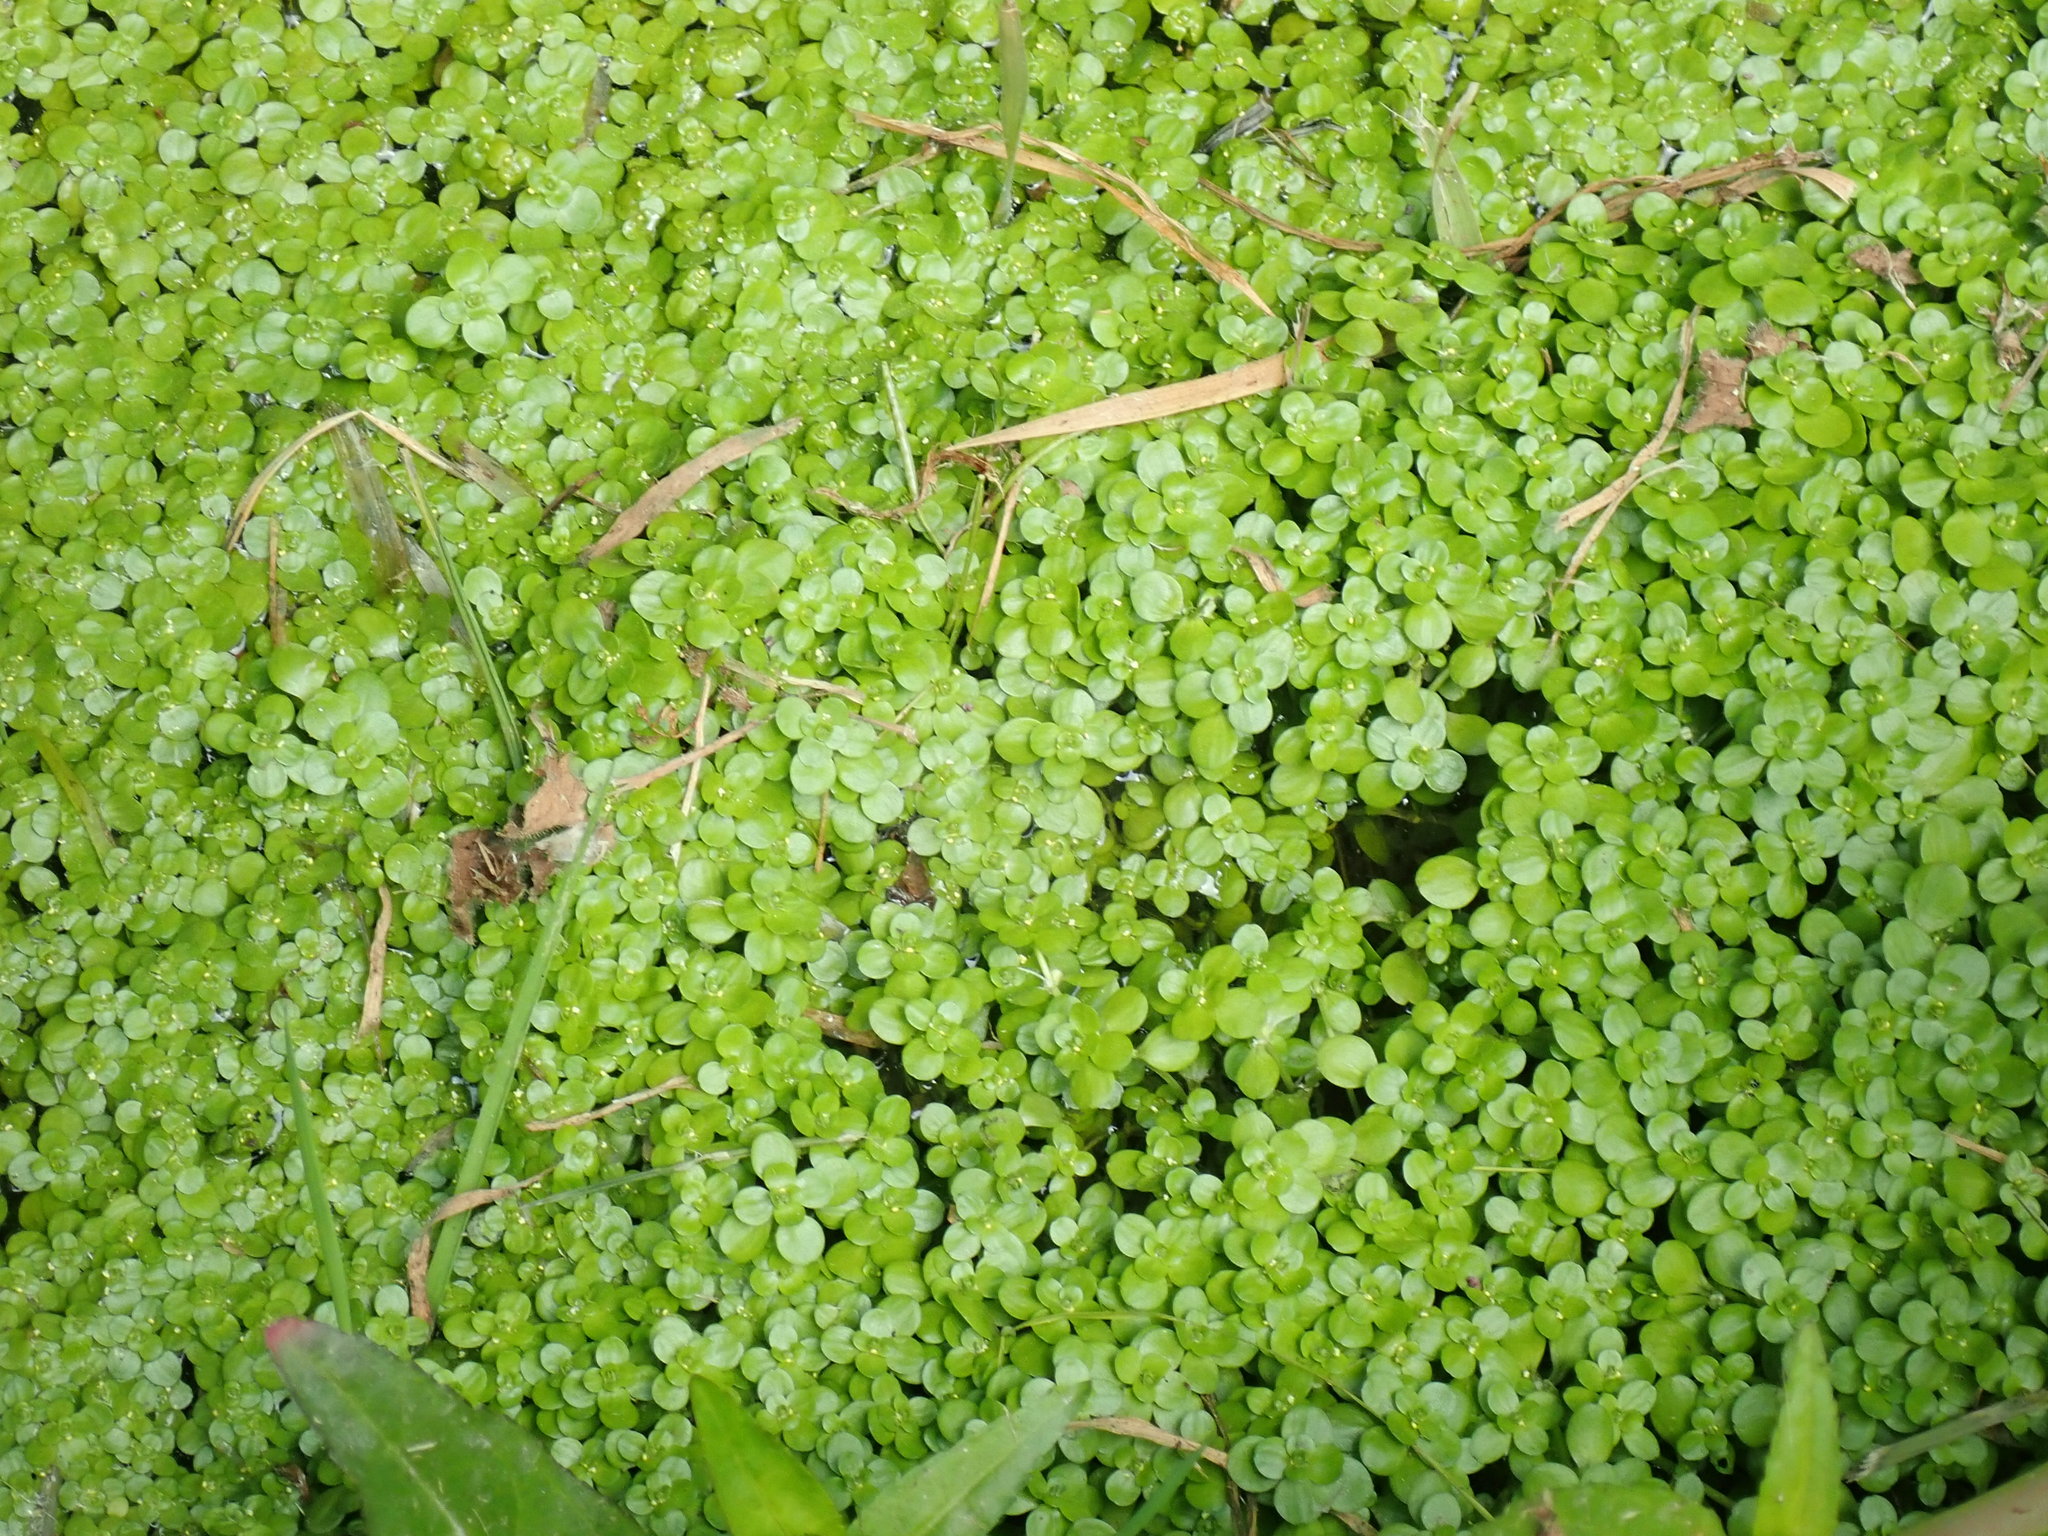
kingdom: Plantae
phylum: Tracheophyta
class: Magnoliopsida
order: Lamiales
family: Plantaginaceae
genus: Callitriche
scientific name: Callitriche stagnalis
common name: Common water-starwort
